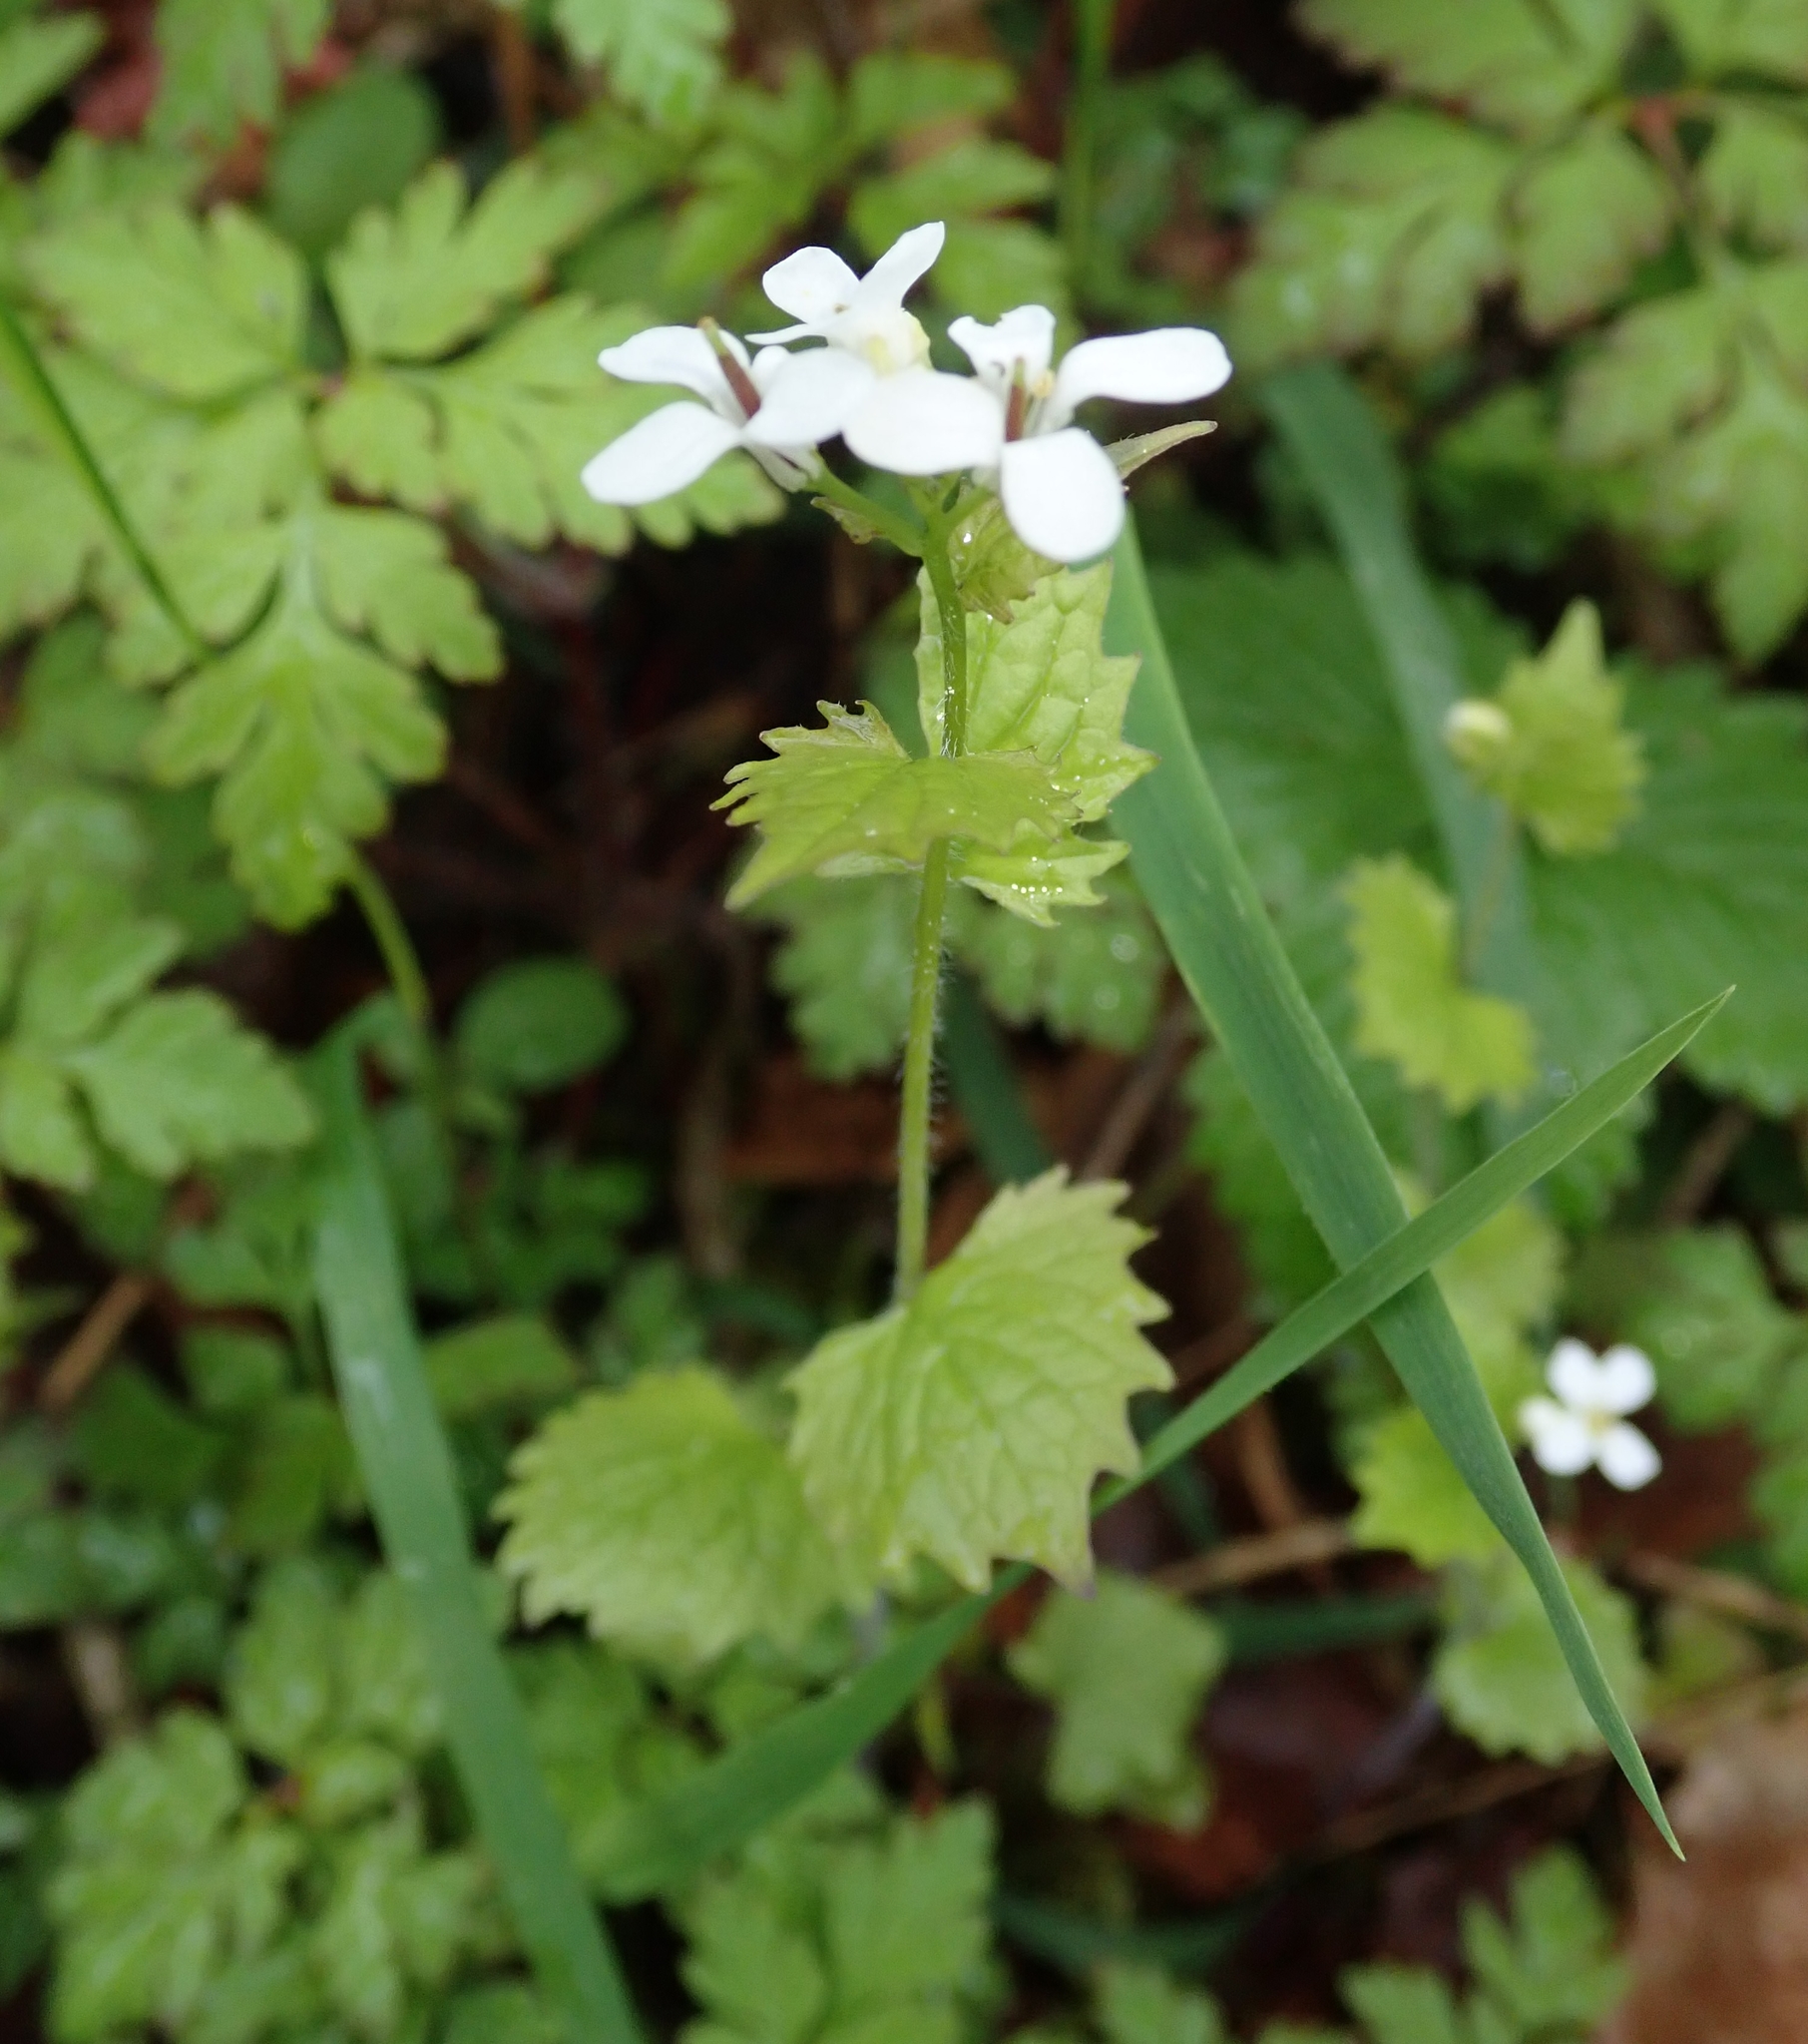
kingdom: Plantae
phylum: Tracheophyta
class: Magnoliopsida
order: Brassicales
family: Brassicaceae
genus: Alliaria
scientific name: Alliaria petiolata
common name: Garlic mustard
